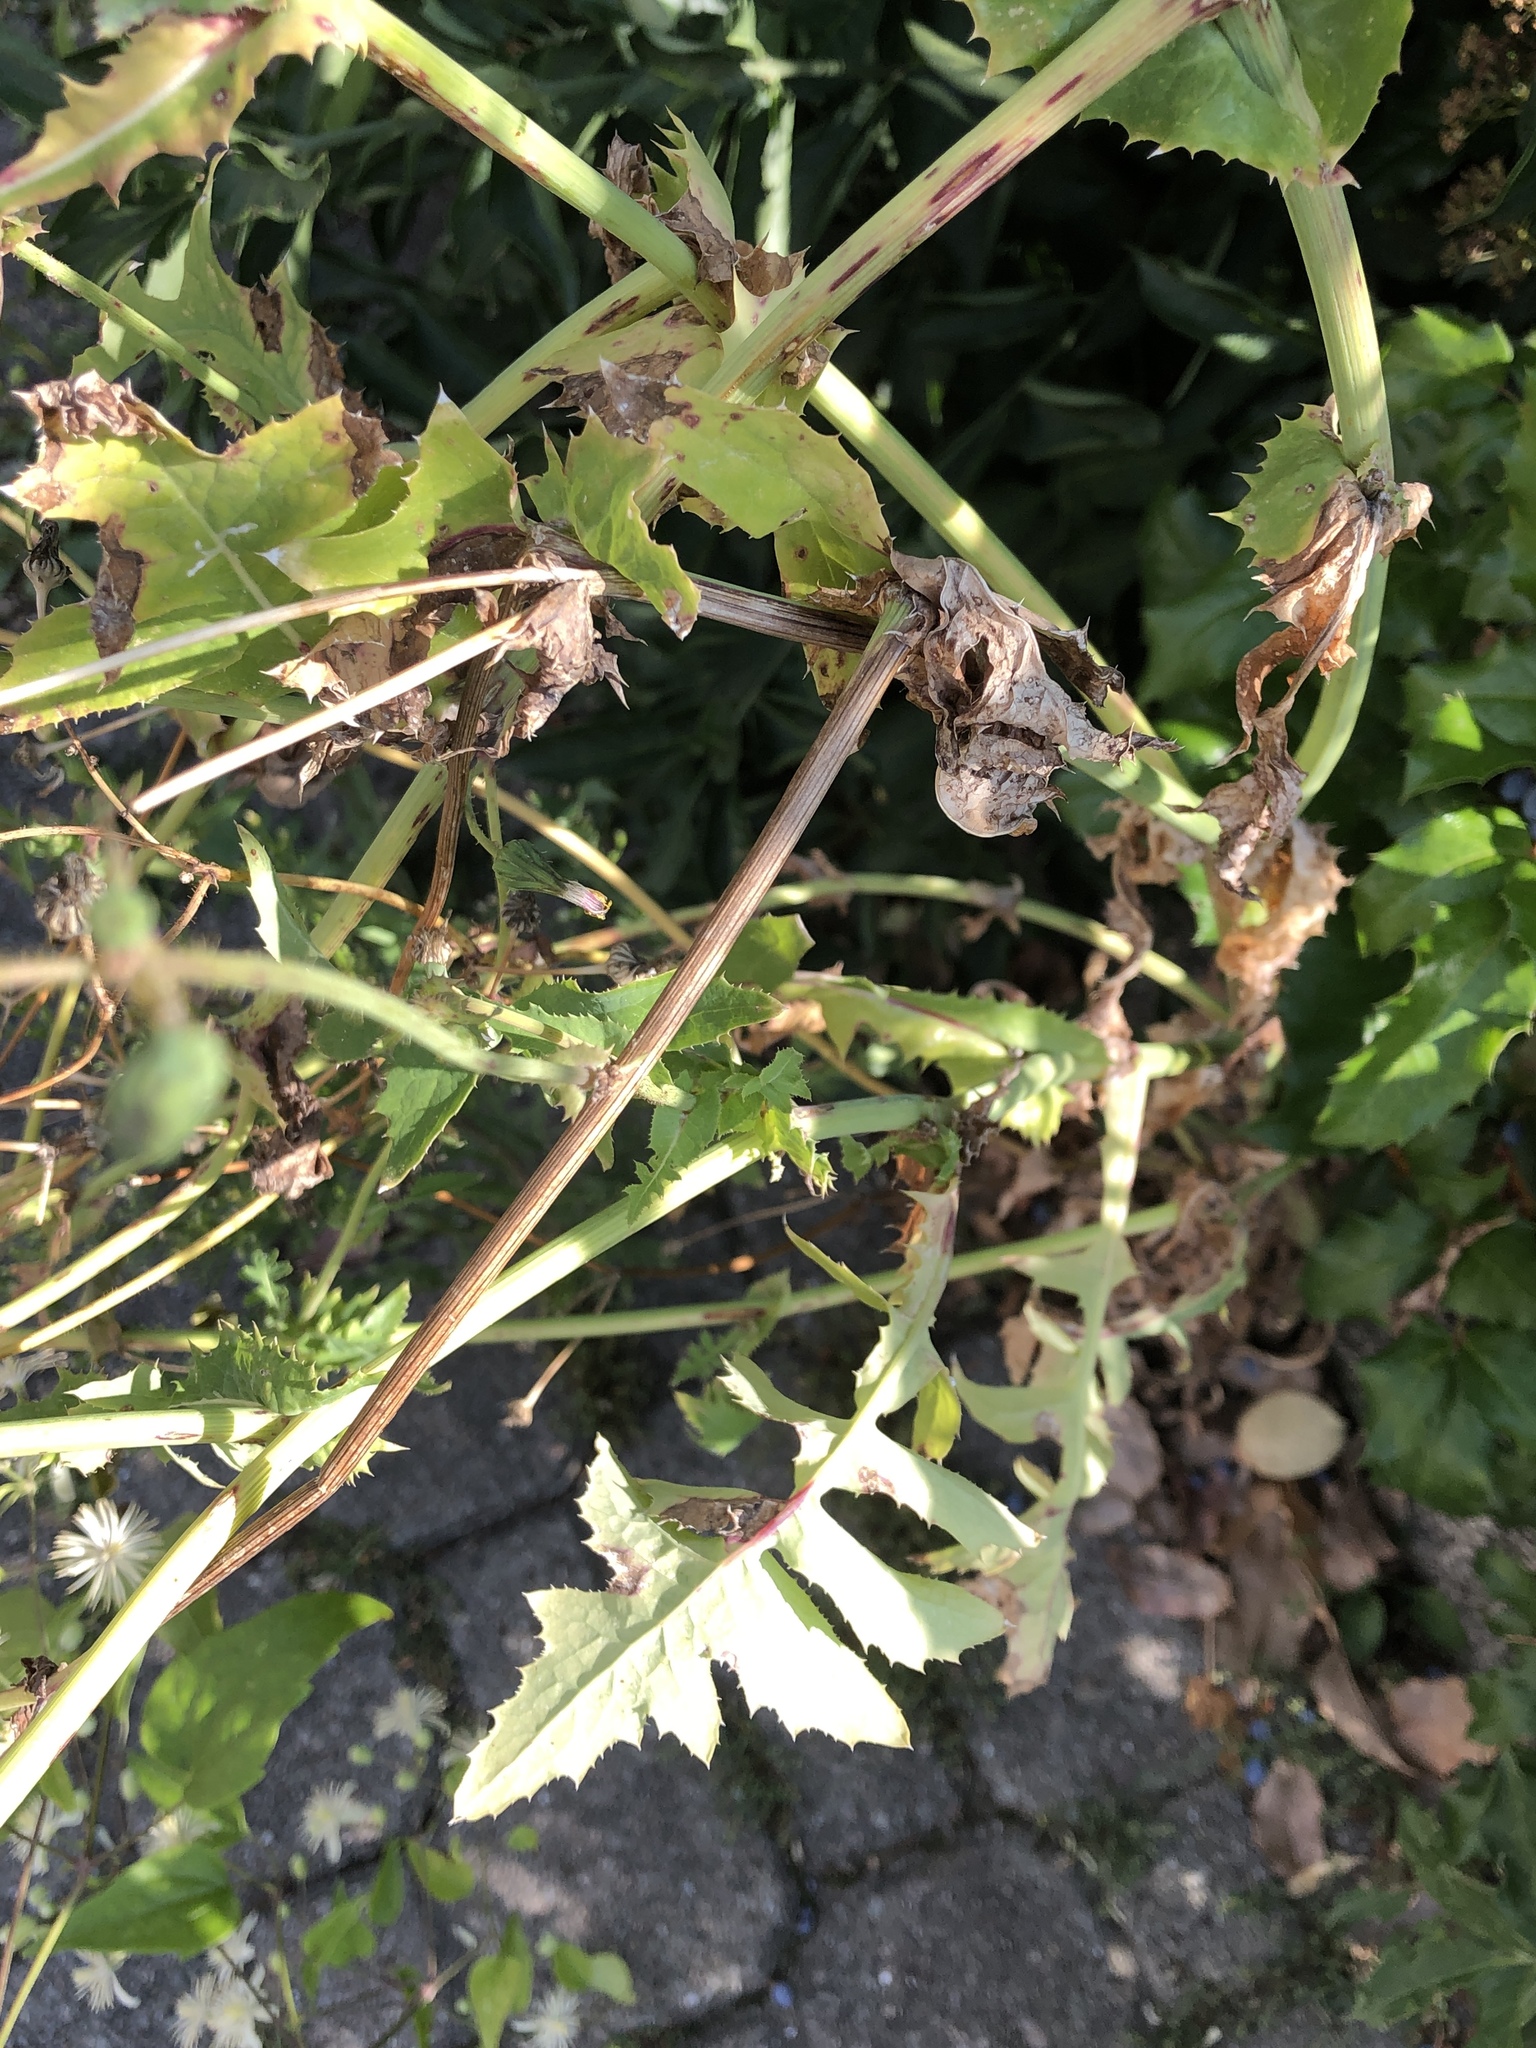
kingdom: Plantae
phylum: Tracheophyta
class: Magnoliopsida
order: Asterales
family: Asteraceae
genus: Sonchus
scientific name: Sonchus oleraceus
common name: Common sowthistle
